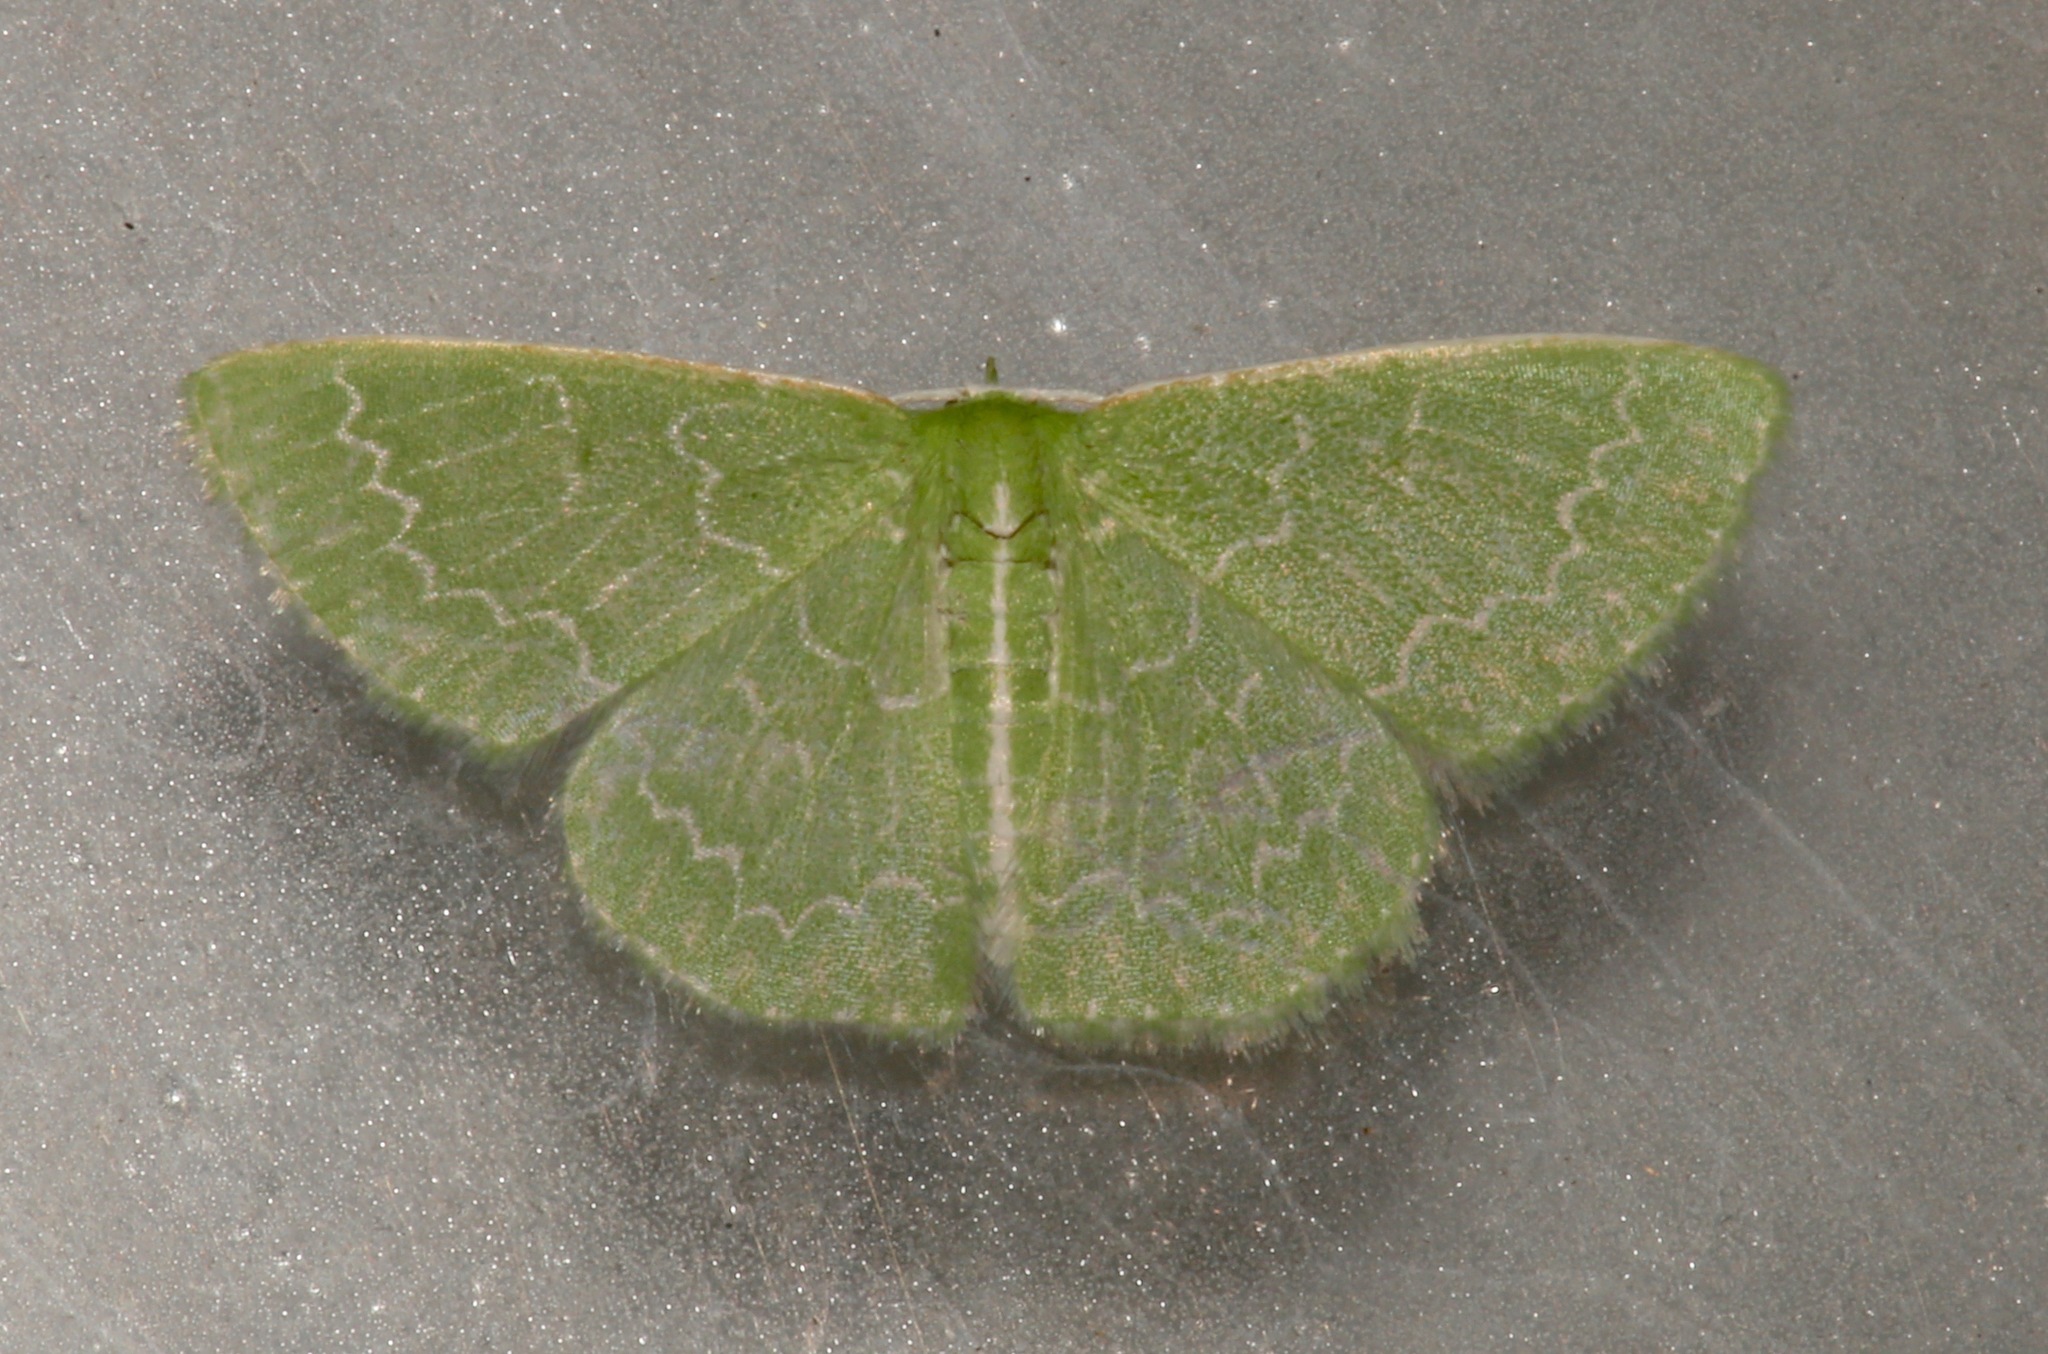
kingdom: Animalia
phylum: Arthropoda
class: Insecta
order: Lepidoptera
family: Geometridae
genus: Synchlora
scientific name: Synchlora frondaria
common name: Southern emerald
